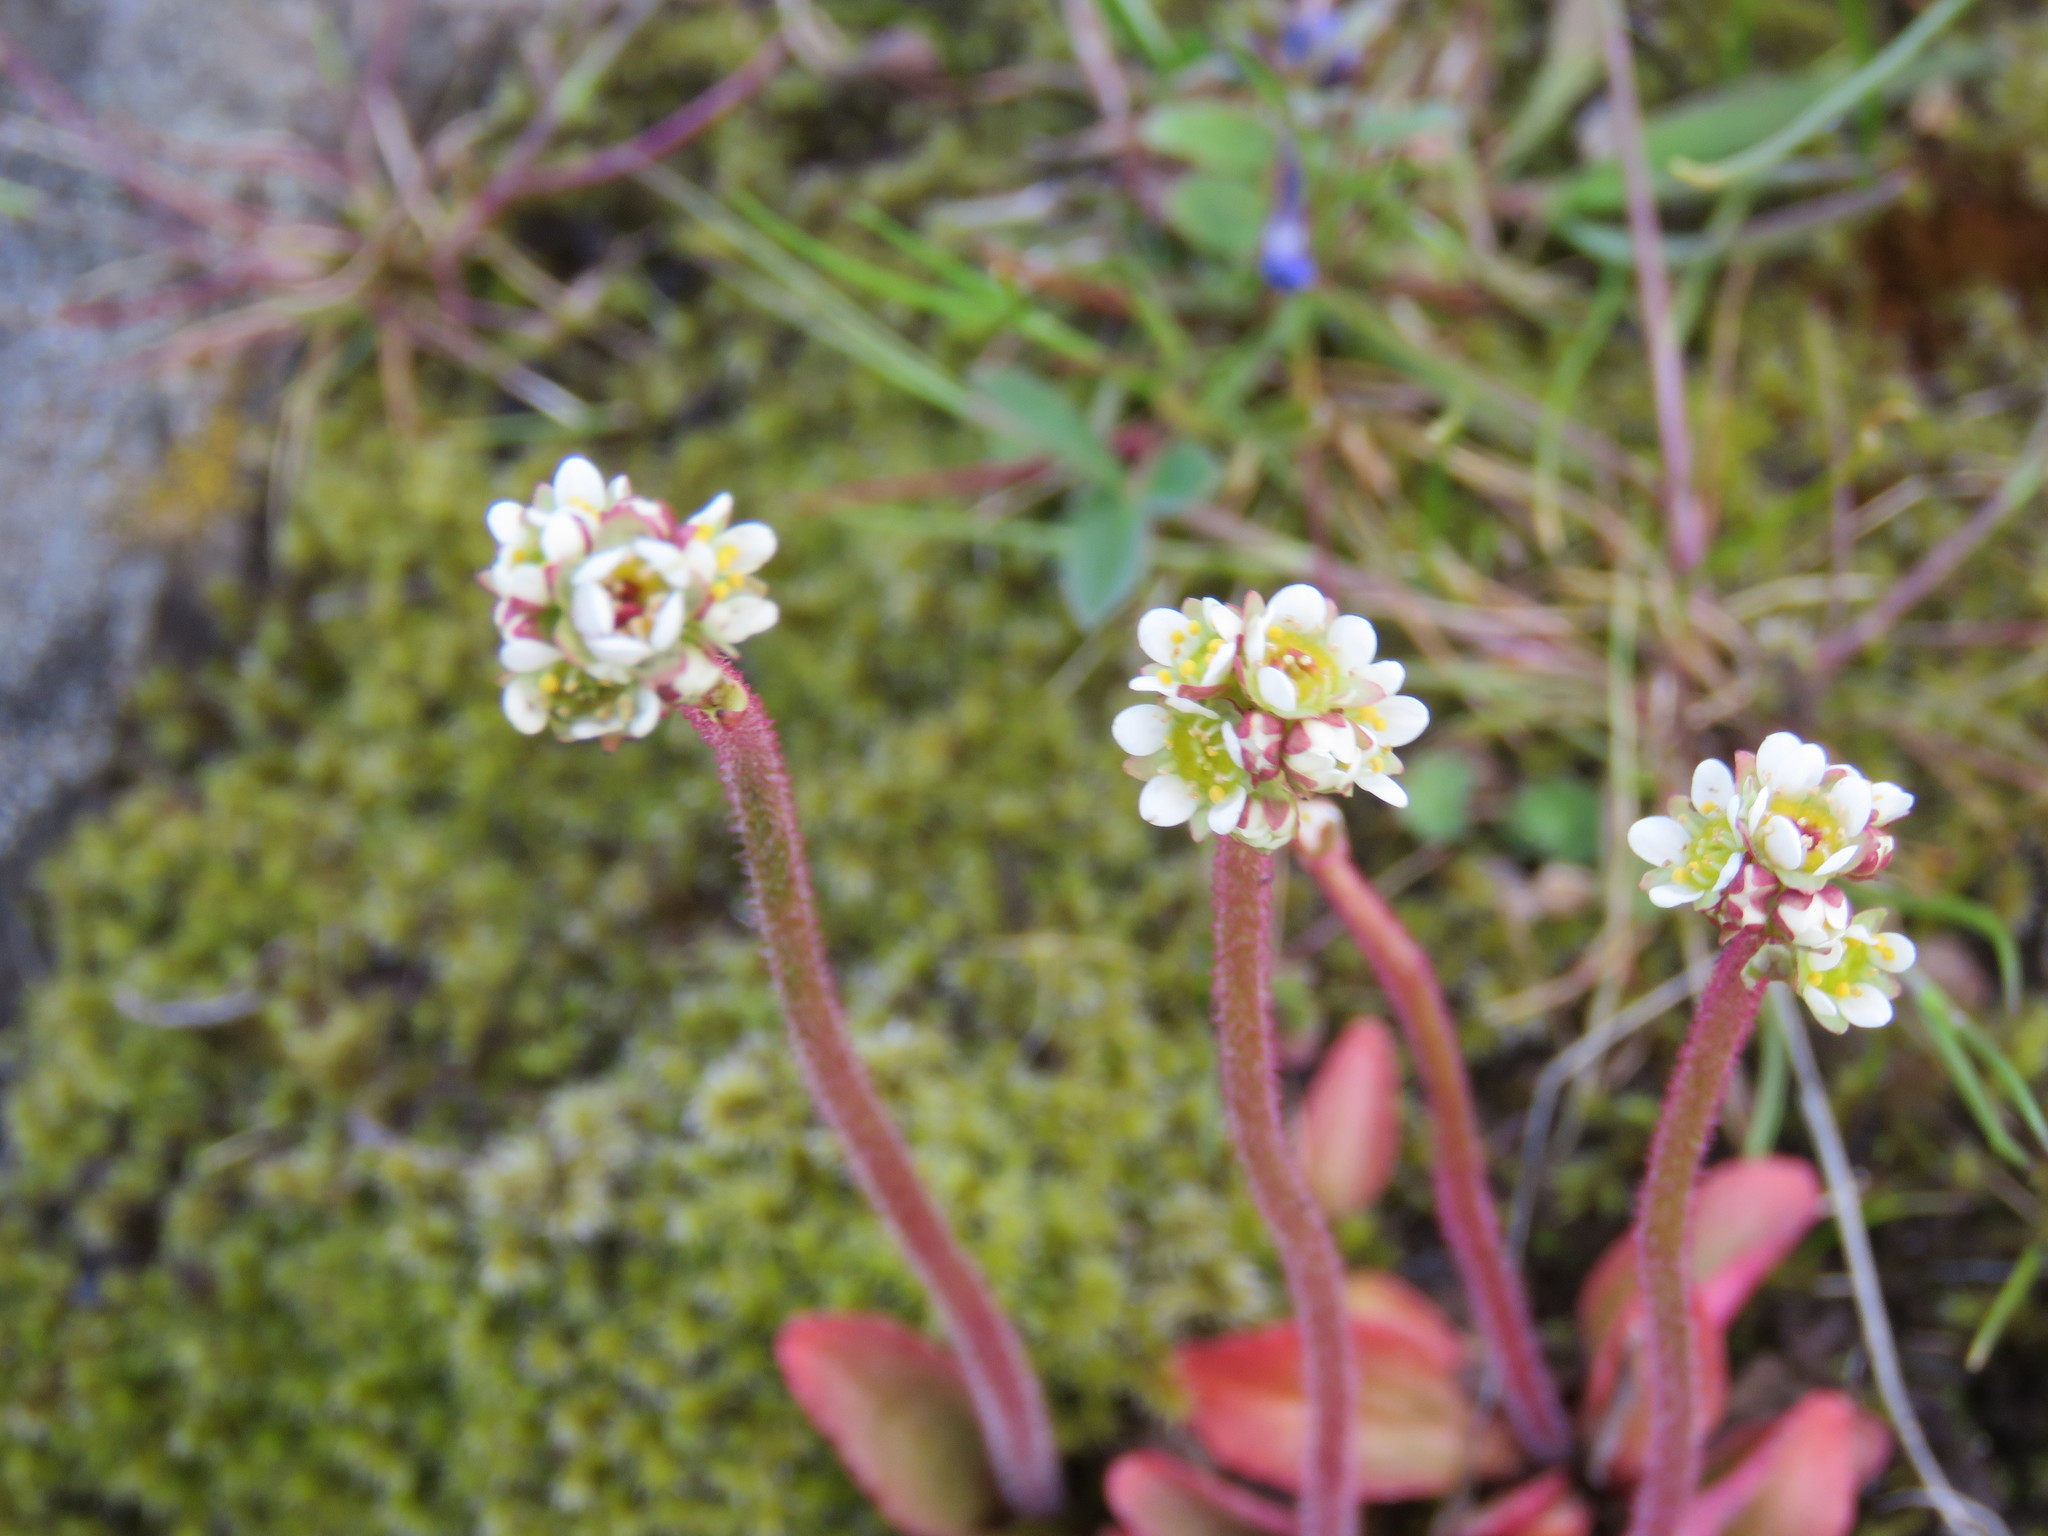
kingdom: Plantae
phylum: Tracheophyta
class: Magnoliopsida
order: Saxifragales
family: Saxifragaceae
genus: Micranthes
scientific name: Micranthes integrifolia
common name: Wholeleaf saxifrage
